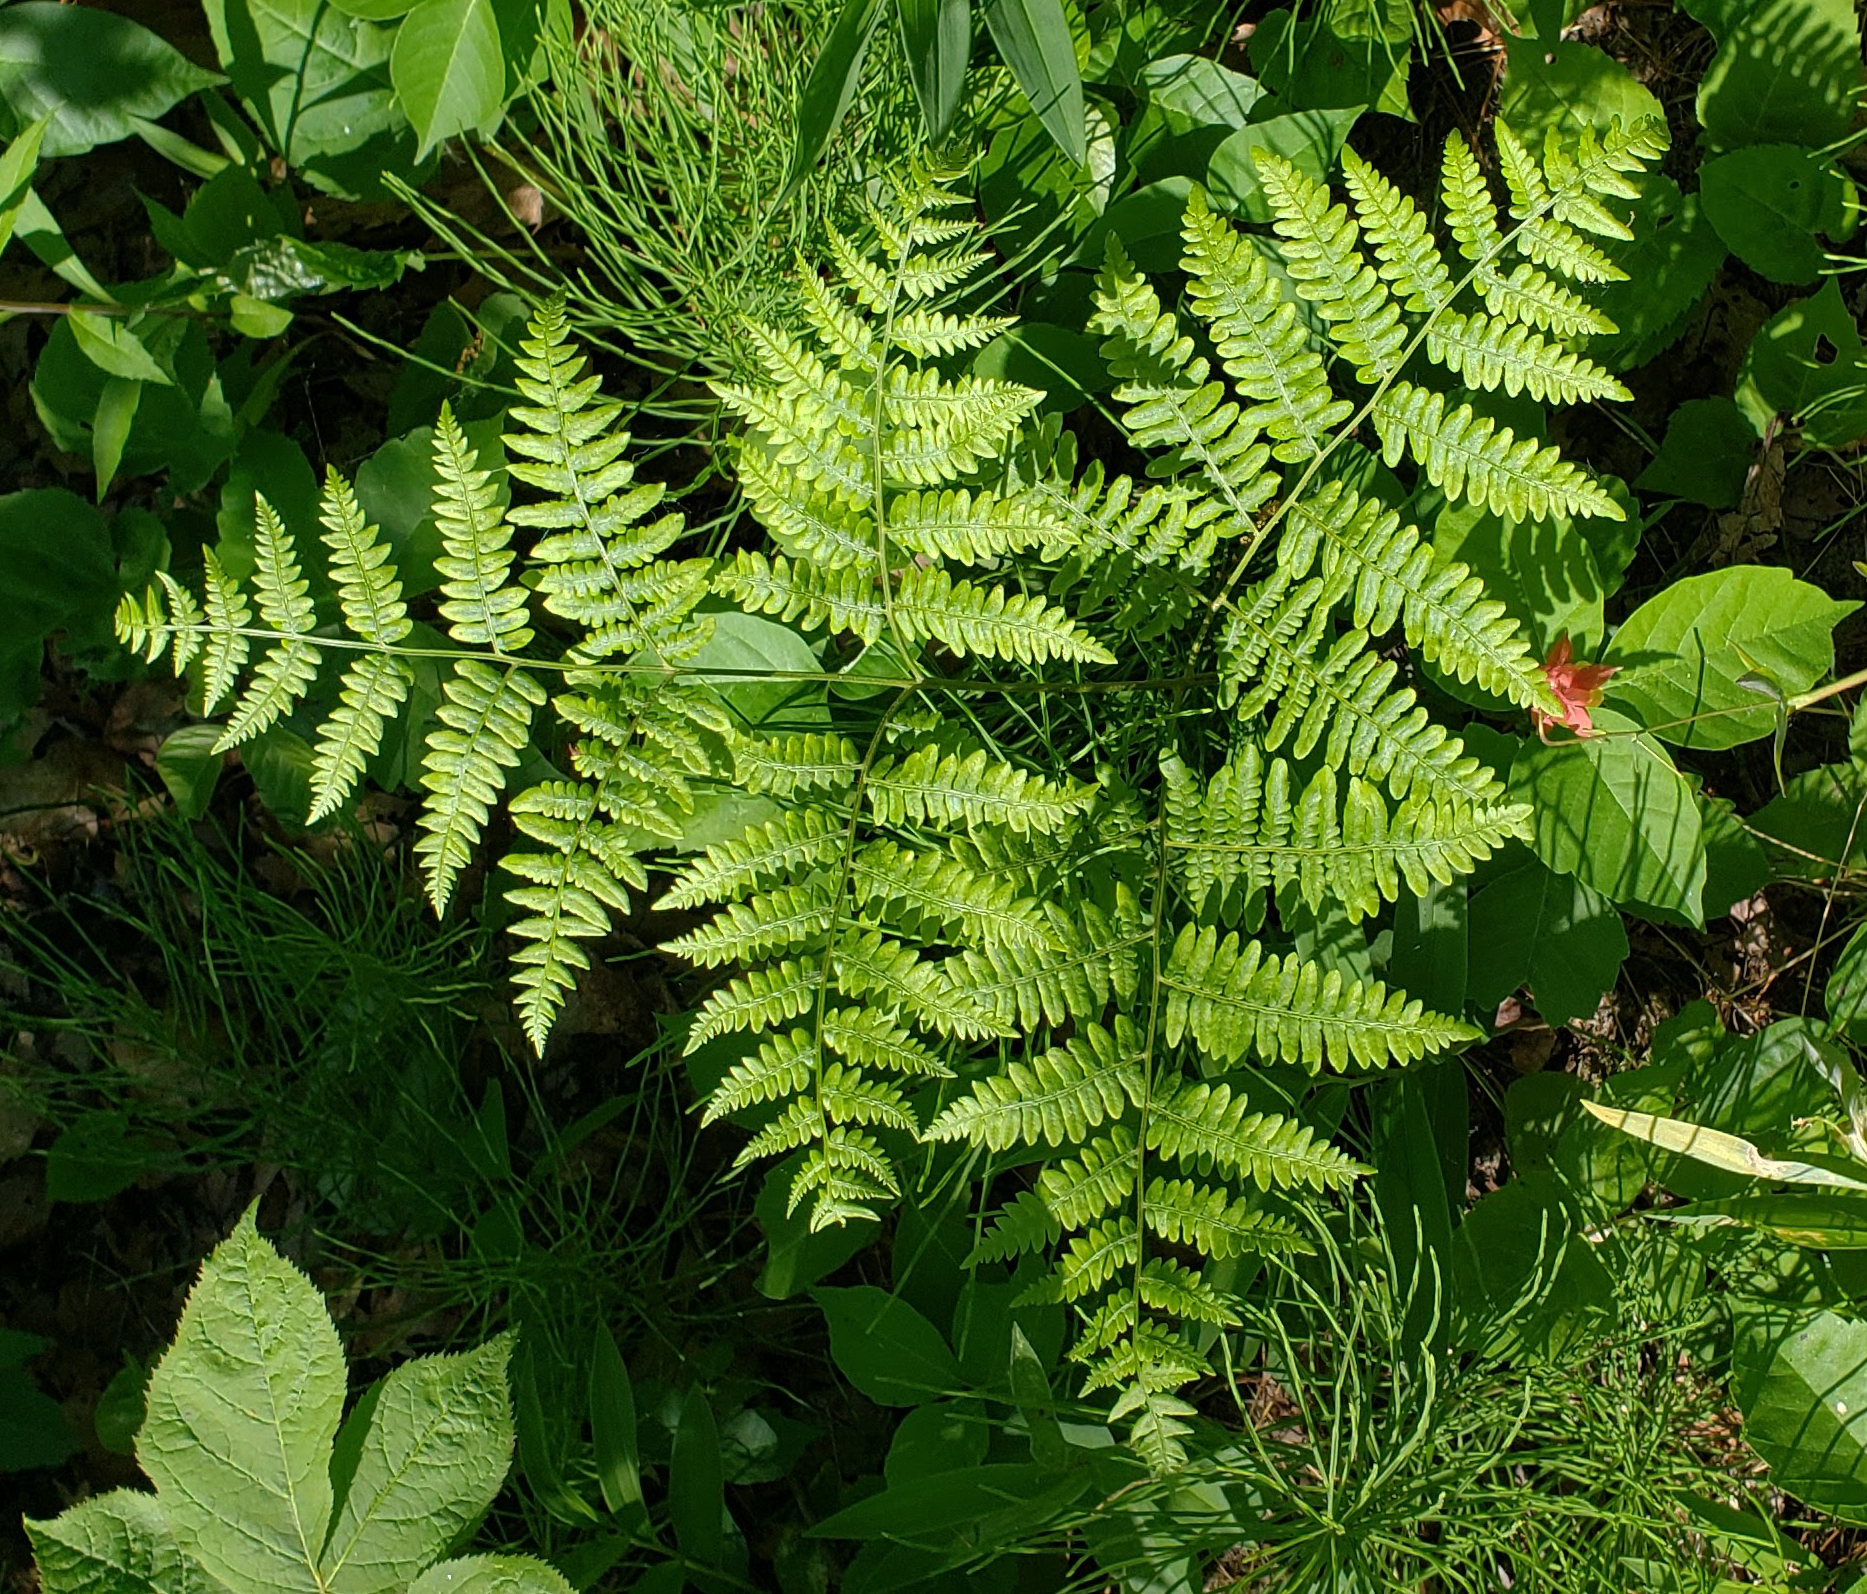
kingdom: Plantae
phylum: Tracheophyta
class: Polypodiopsida
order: Polypodiales
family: Dennstaedtiaceae
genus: Pteridium
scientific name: Pteridium aquilinum
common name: Bracken
